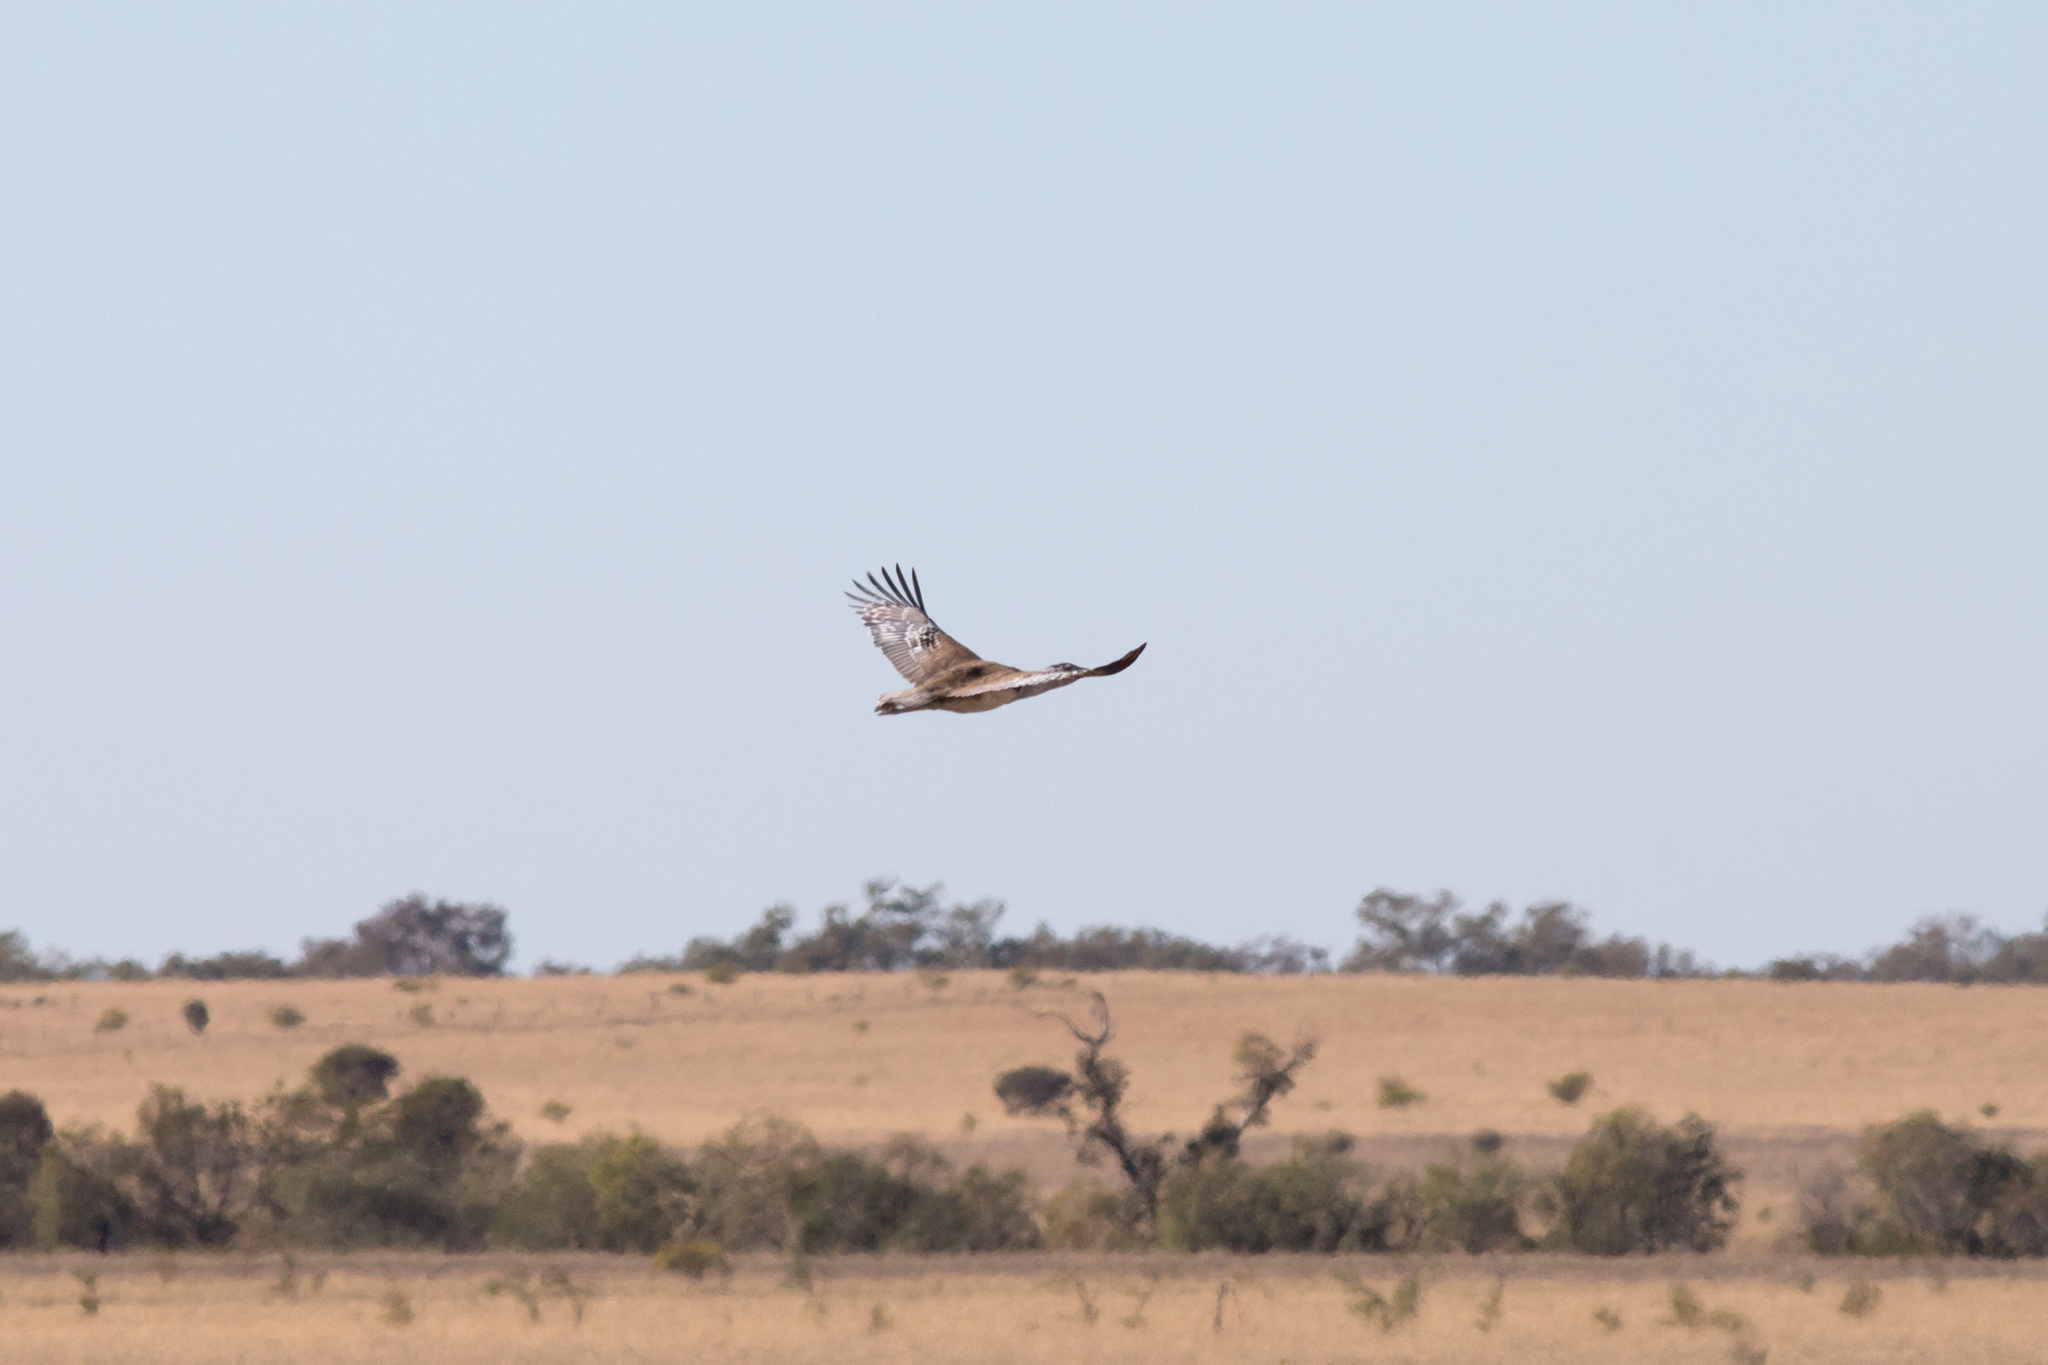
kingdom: Animalia
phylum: Chordata
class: Aves
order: Otidiformes
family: Otididae
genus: Ardeotis
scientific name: Ardeotis australis
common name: Australian bustard
